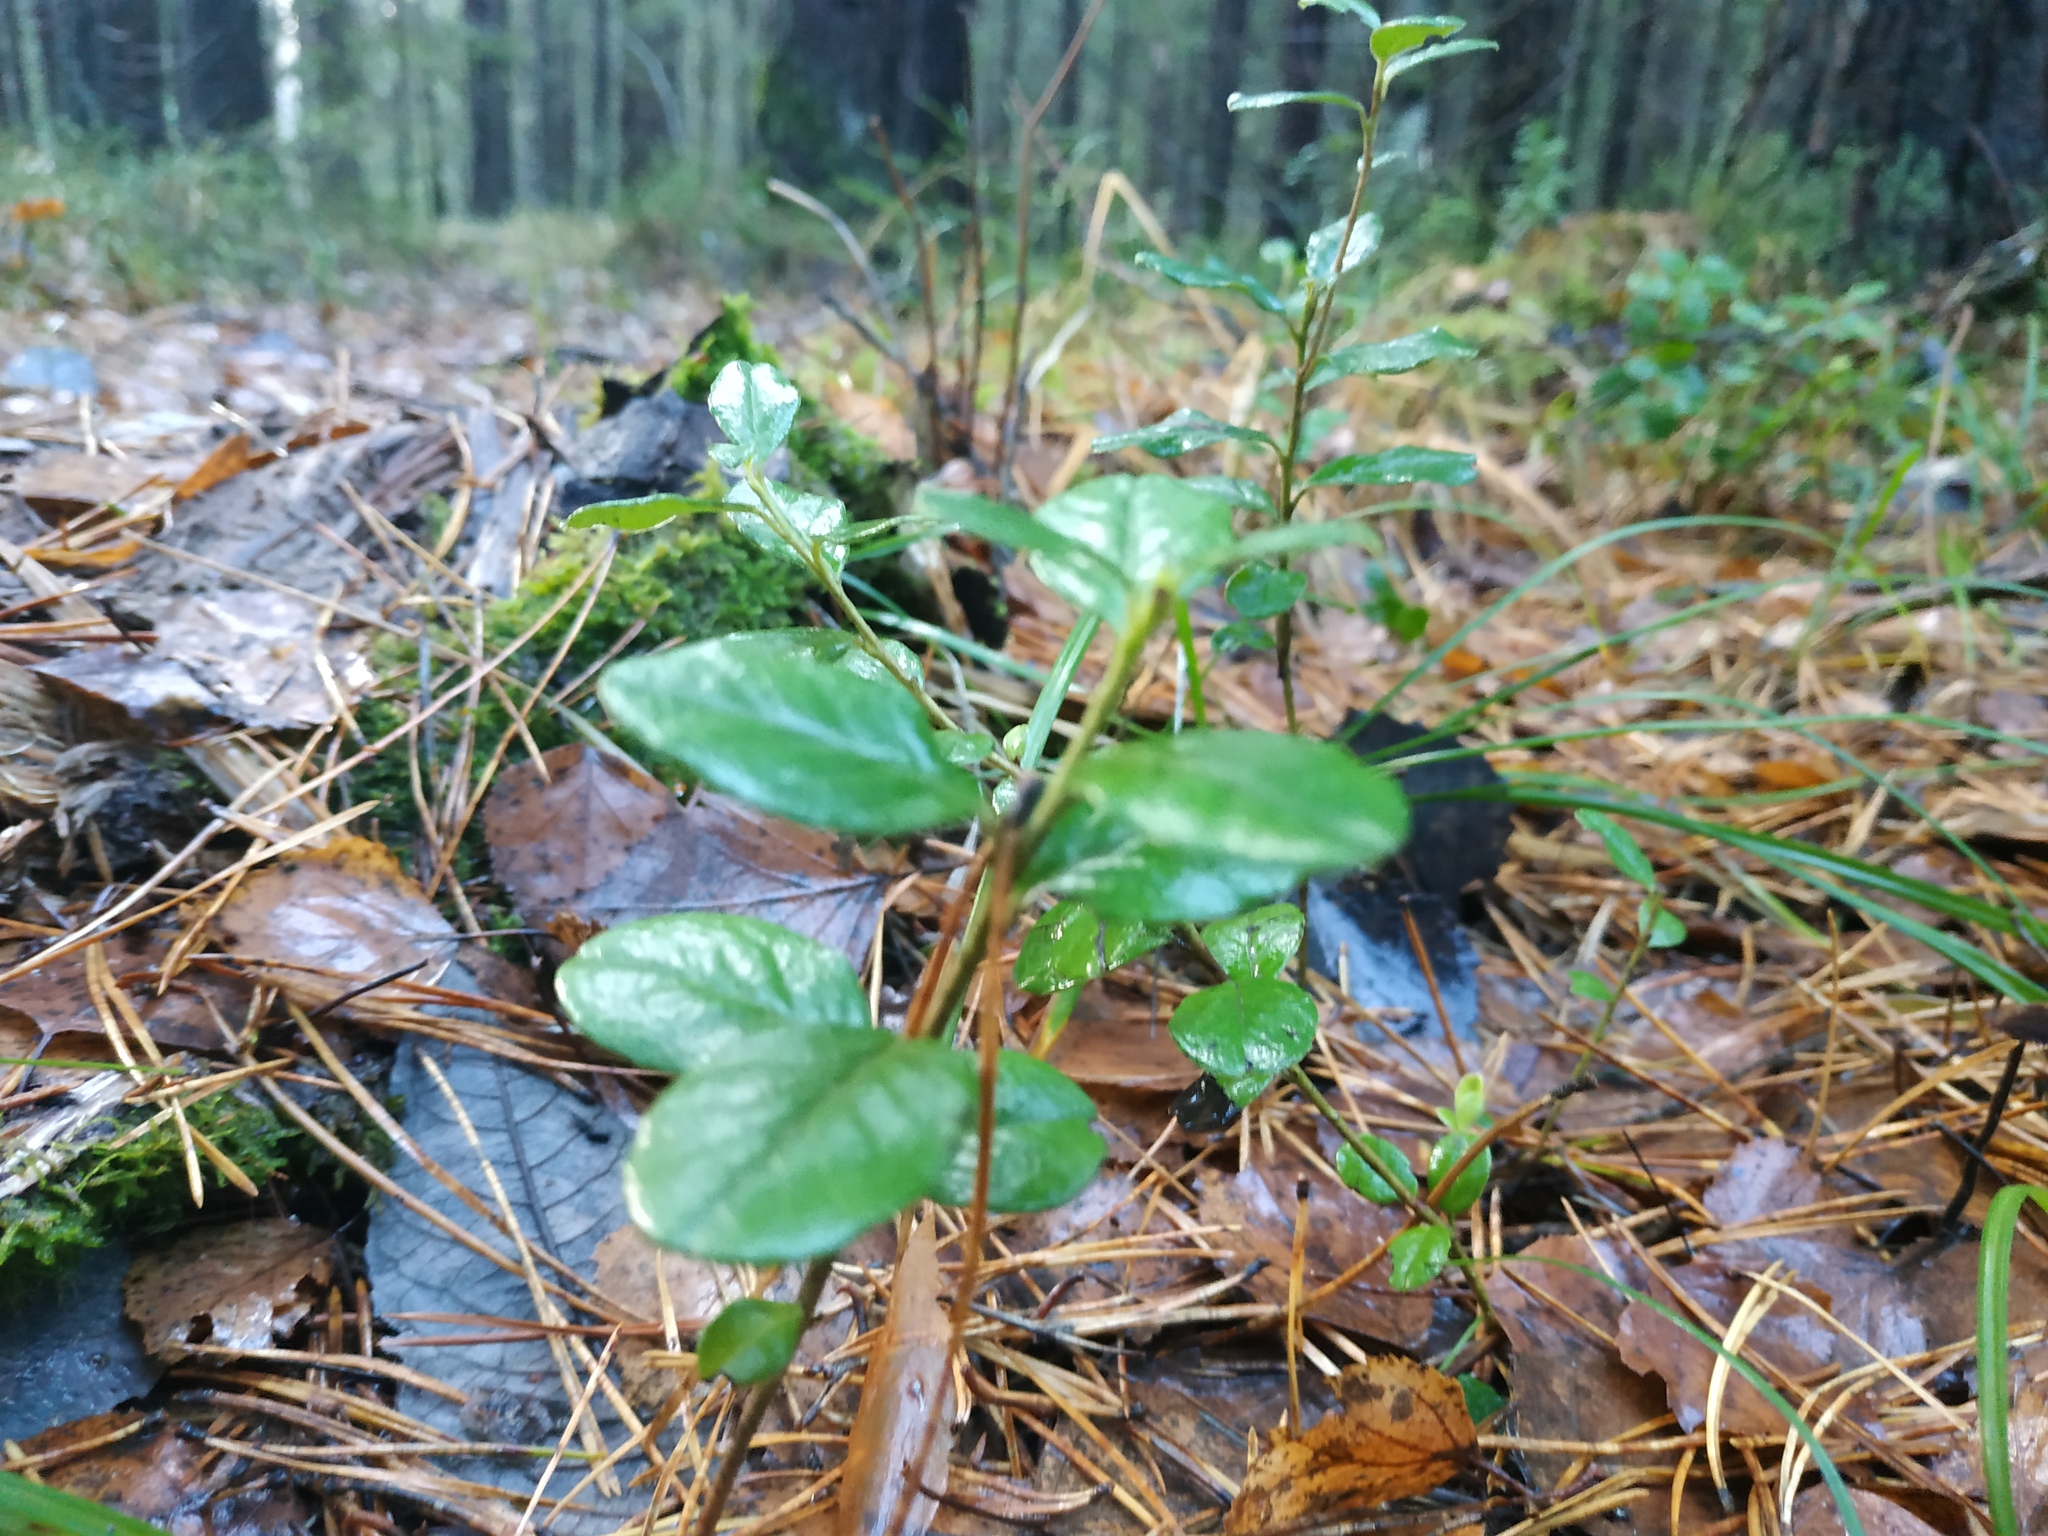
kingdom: Plantae
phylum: Tracheophyta
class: Magnoliopsida
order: Ericales
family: Ericaceae
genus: Vaccinium
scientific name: Vaccinium vitis-idaea
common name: Cowberry
